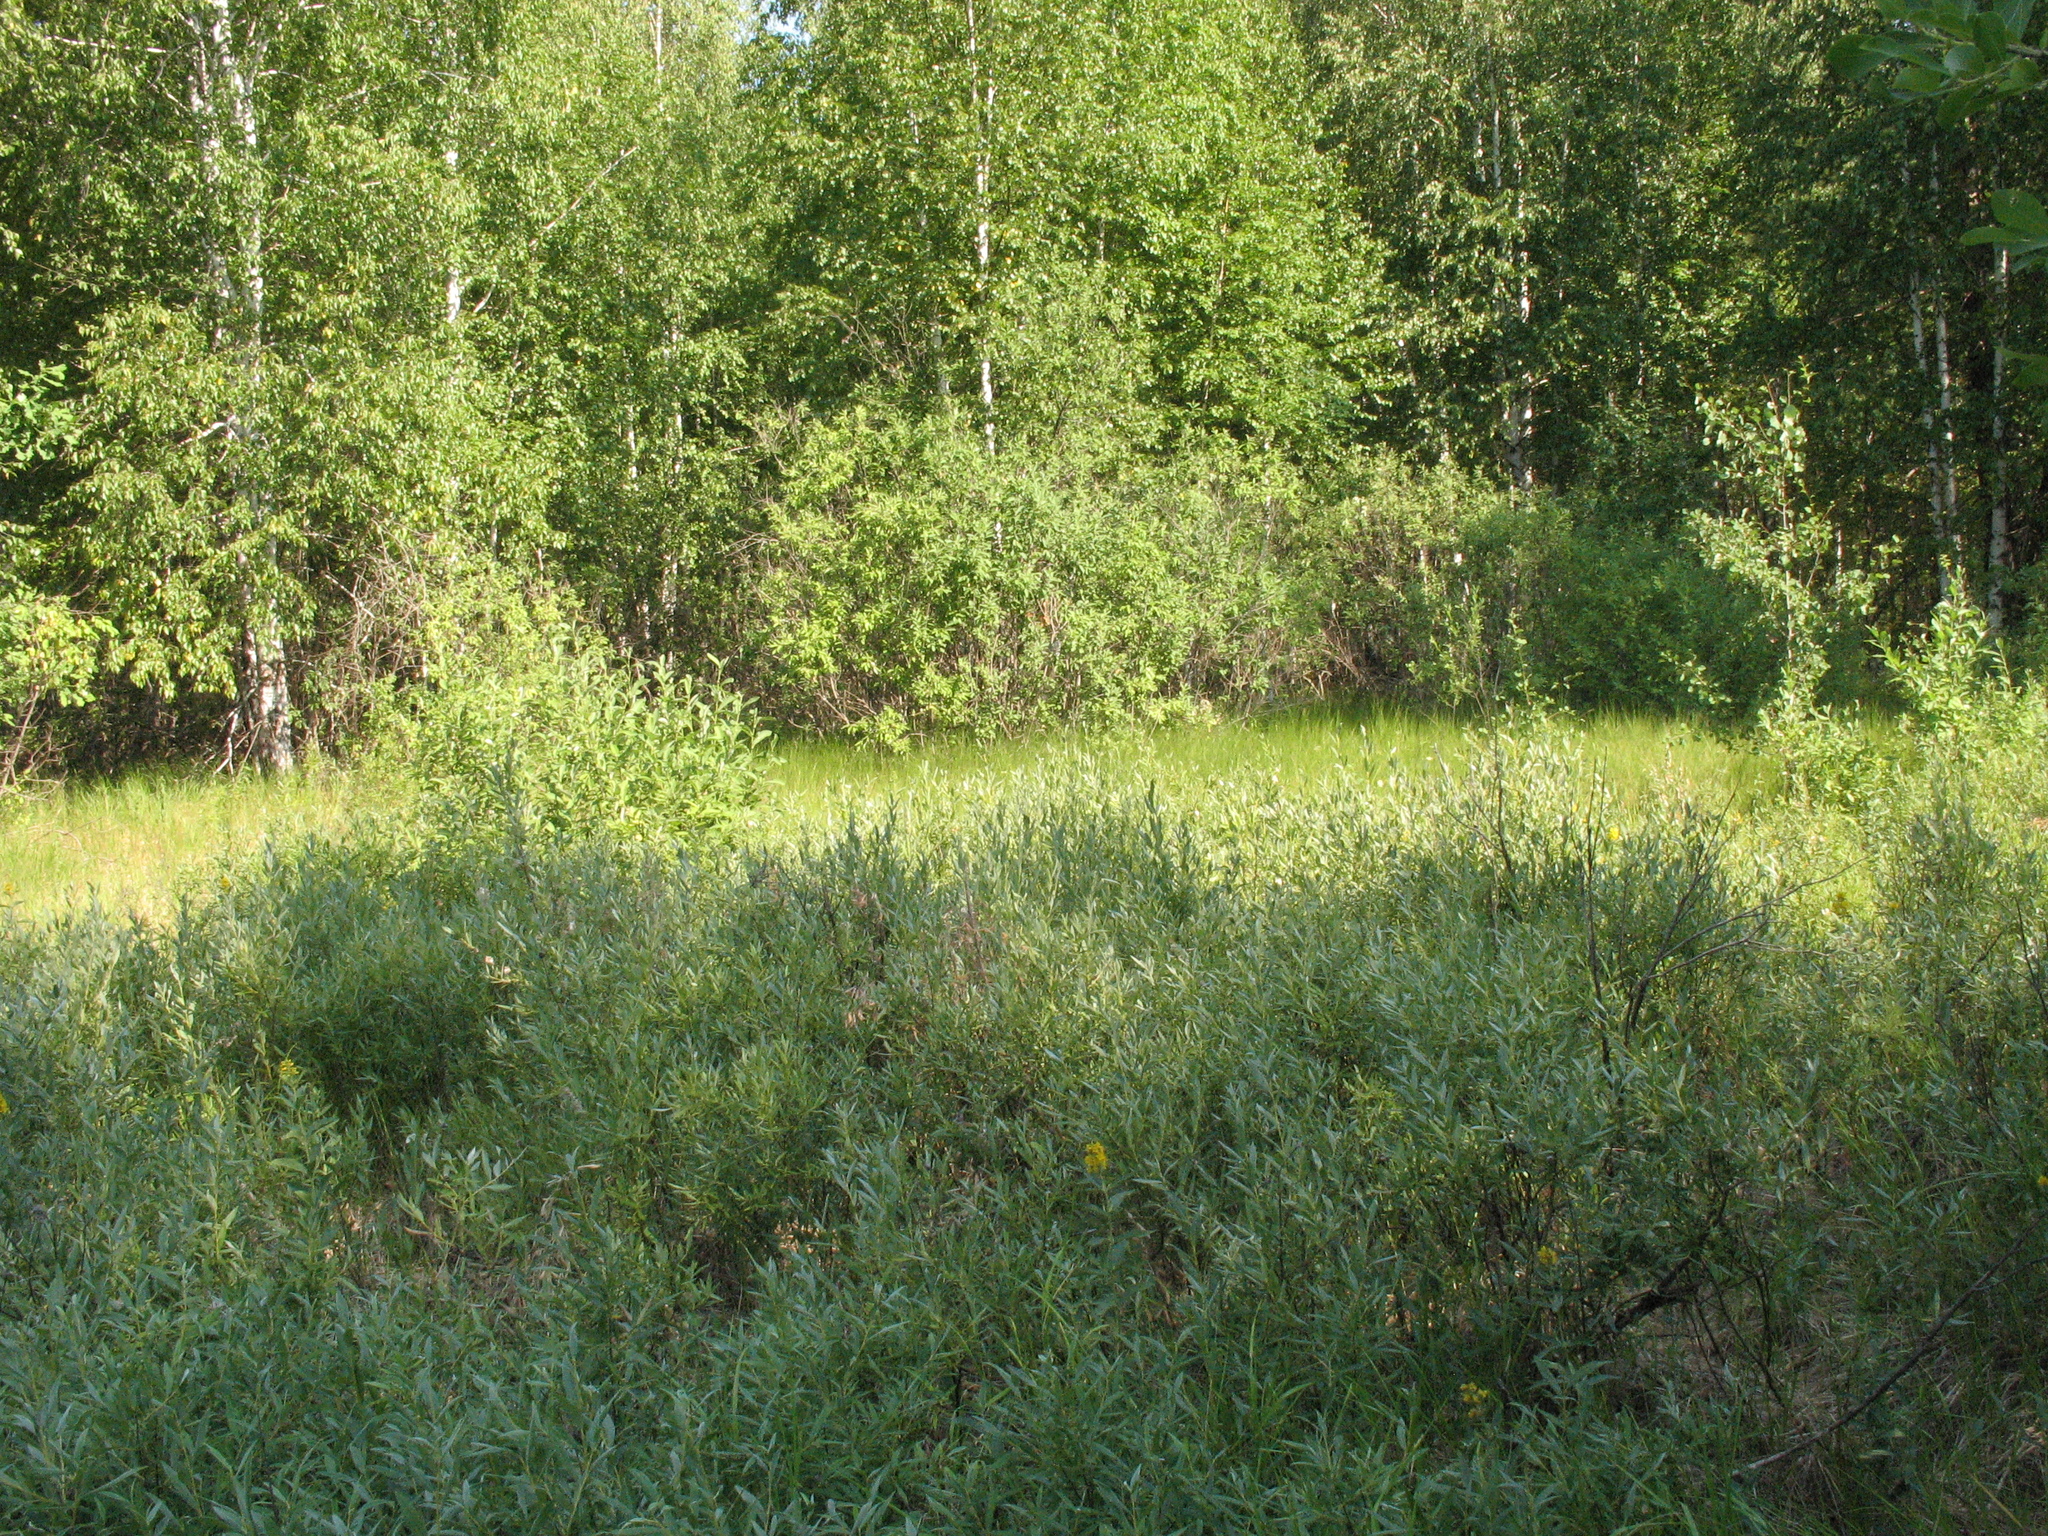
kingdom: Plantae
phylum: Tracheophyta
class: Magnoliopsida
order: Malpighiales
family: Salicaceae
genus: Salix
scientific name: Salix rosmarinifolia
